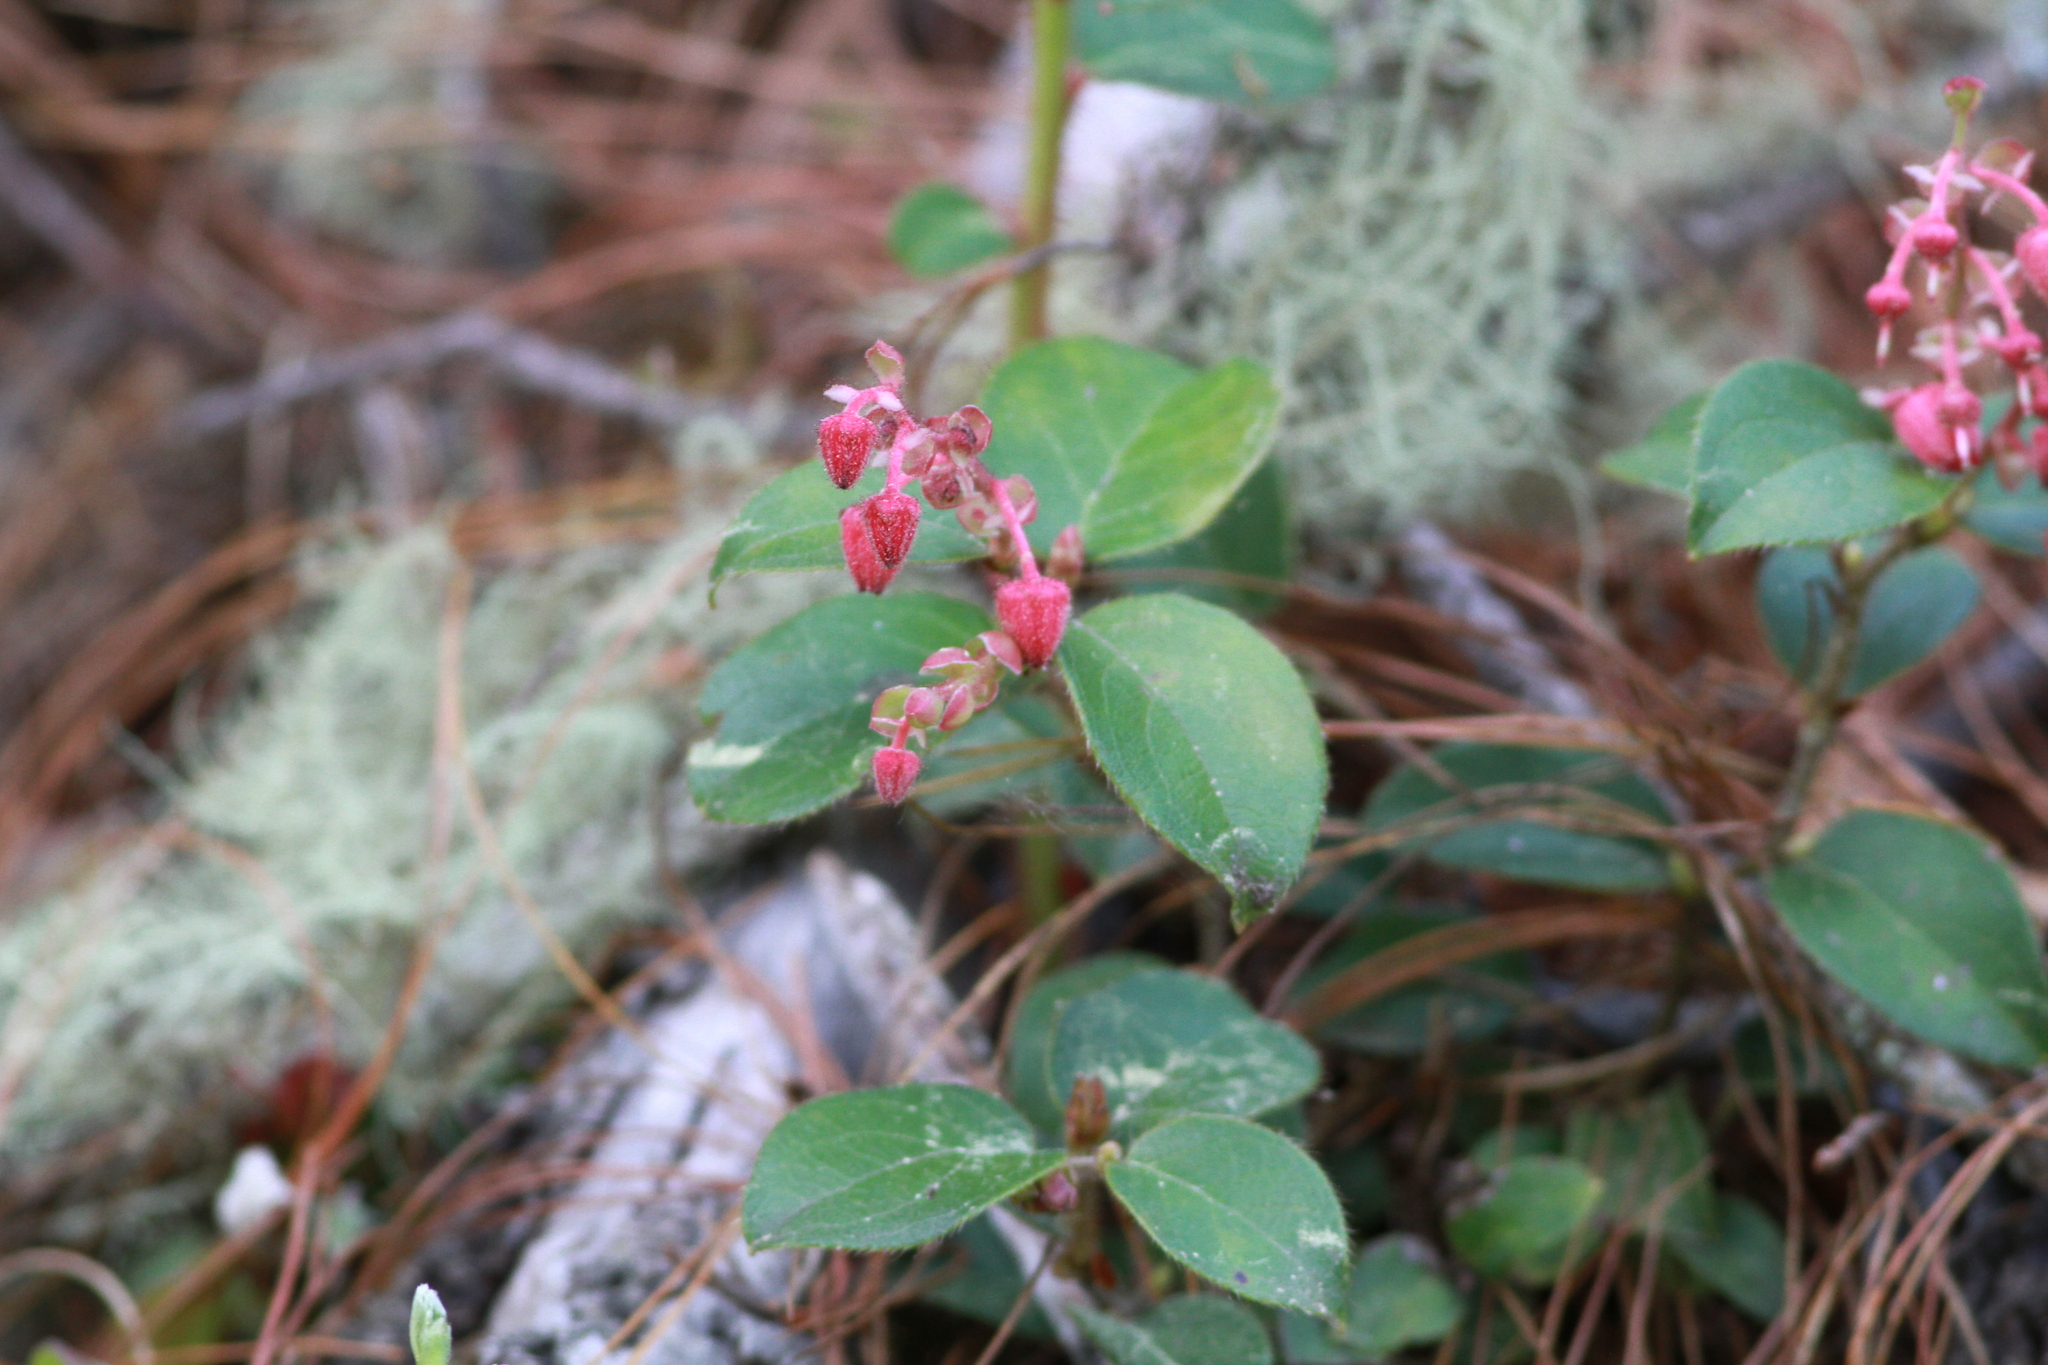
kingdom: Plantae
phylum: Tracheophyta
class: Magnoliopsida
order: Ericales
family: Ericaceae
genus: Gaultheria
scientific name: Gaultheria erecta
